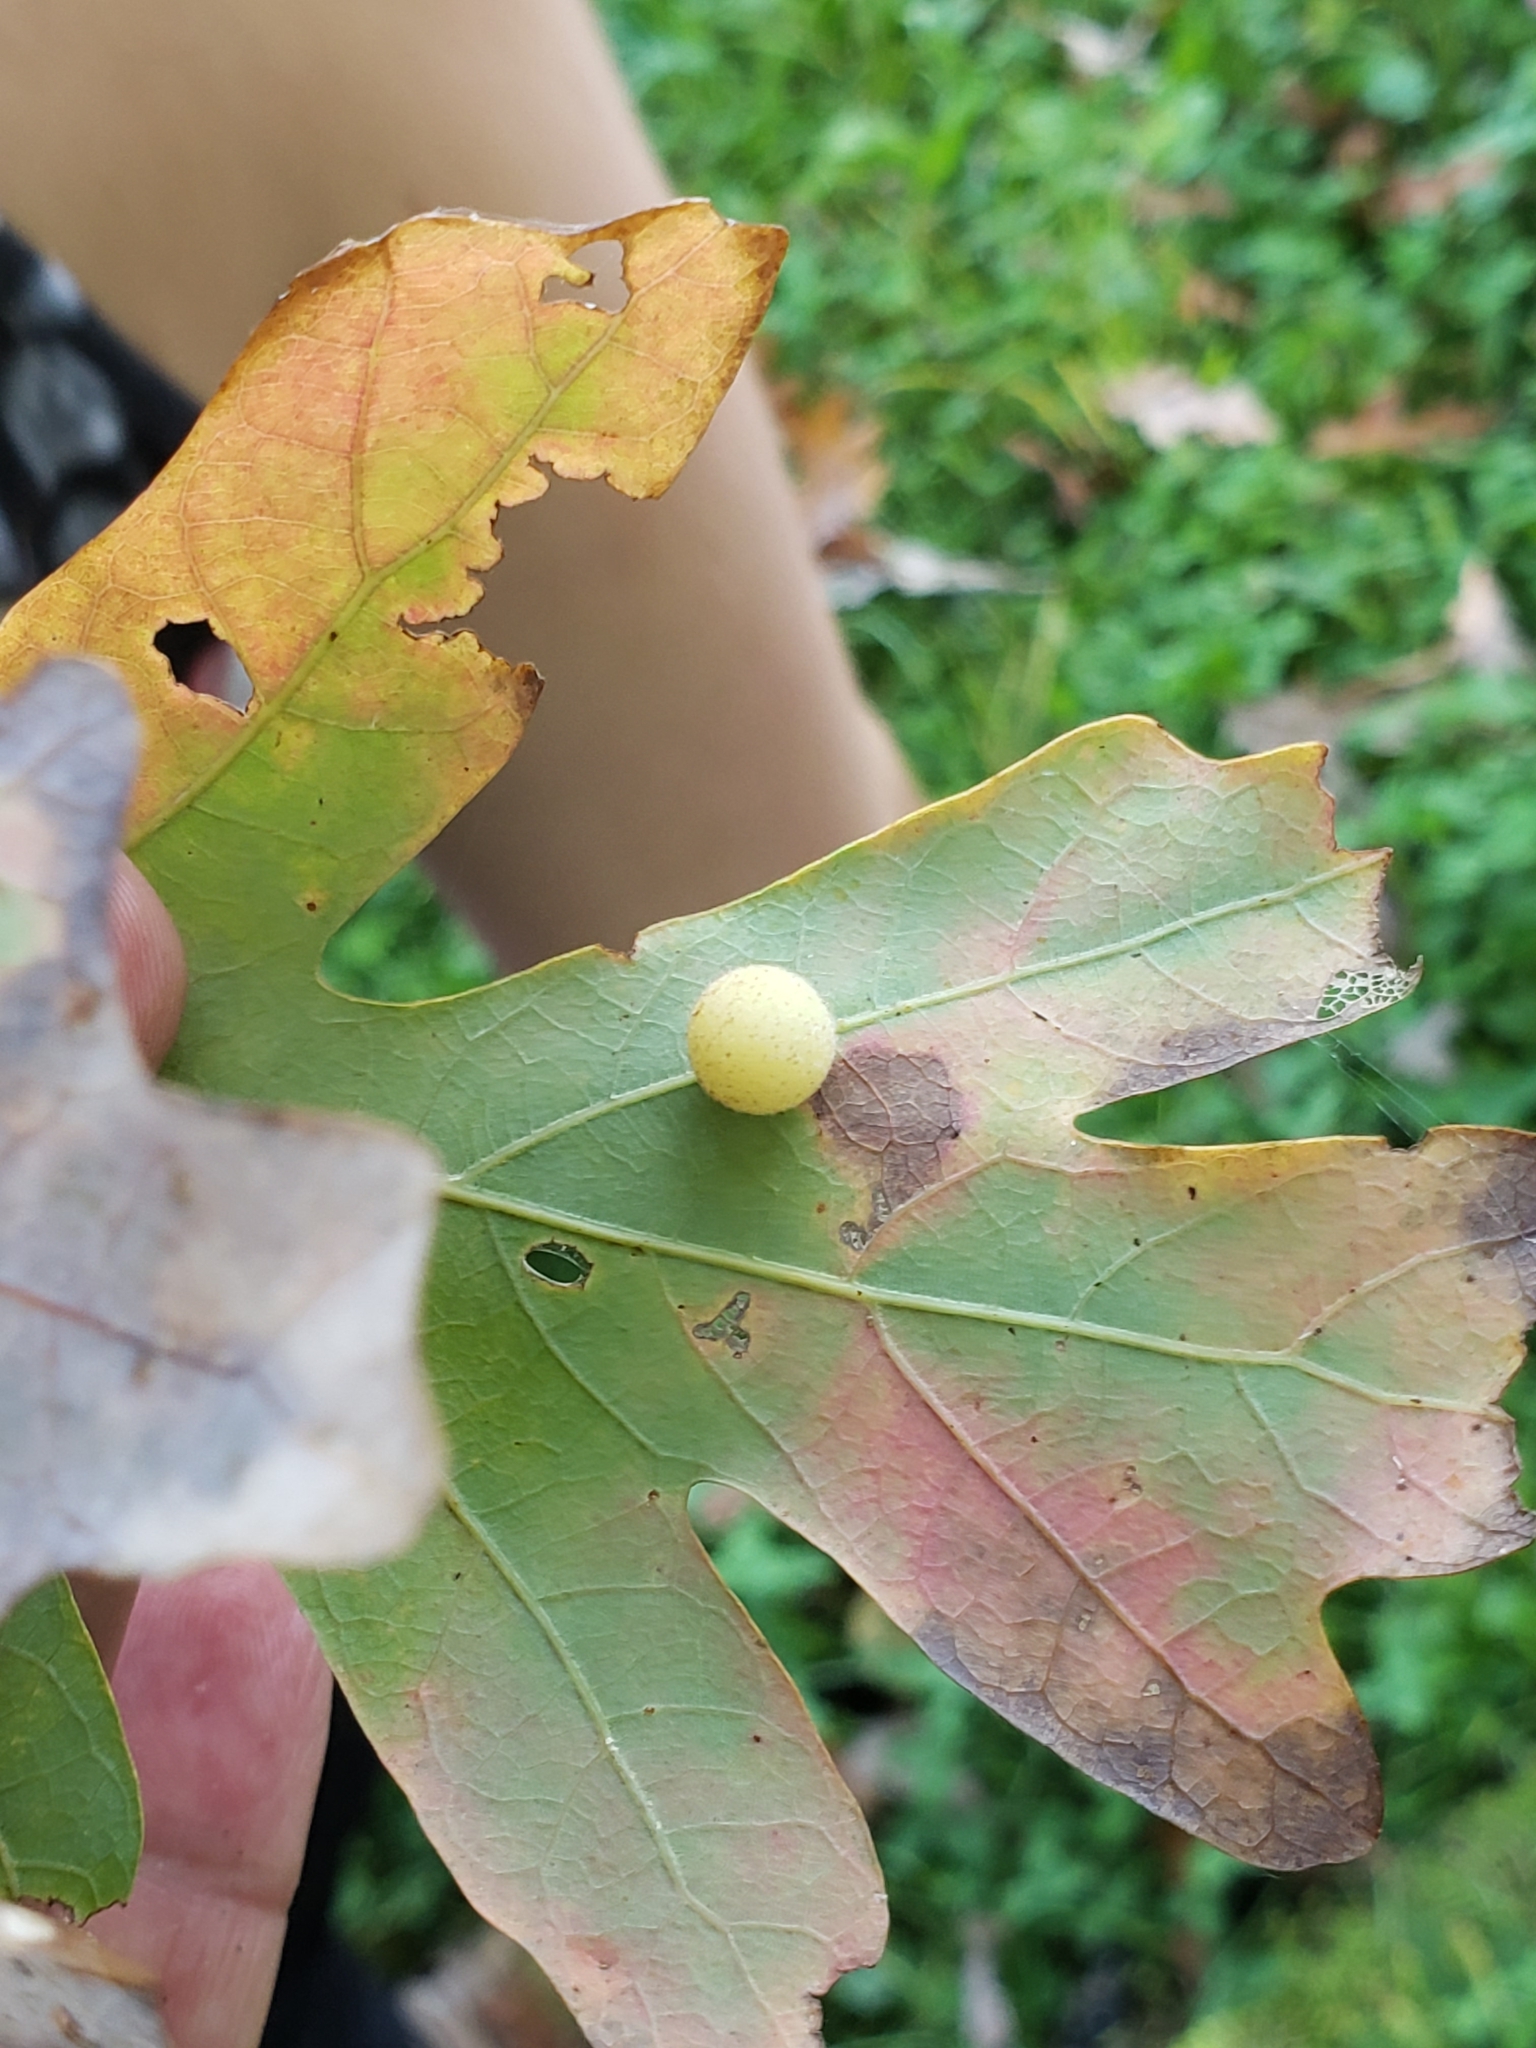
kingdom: Animalia
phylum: Arthropoda
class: Insecta
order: Hymenoptera
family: Cynipidae
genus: Philonix
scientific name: Philonix fulvicollis
